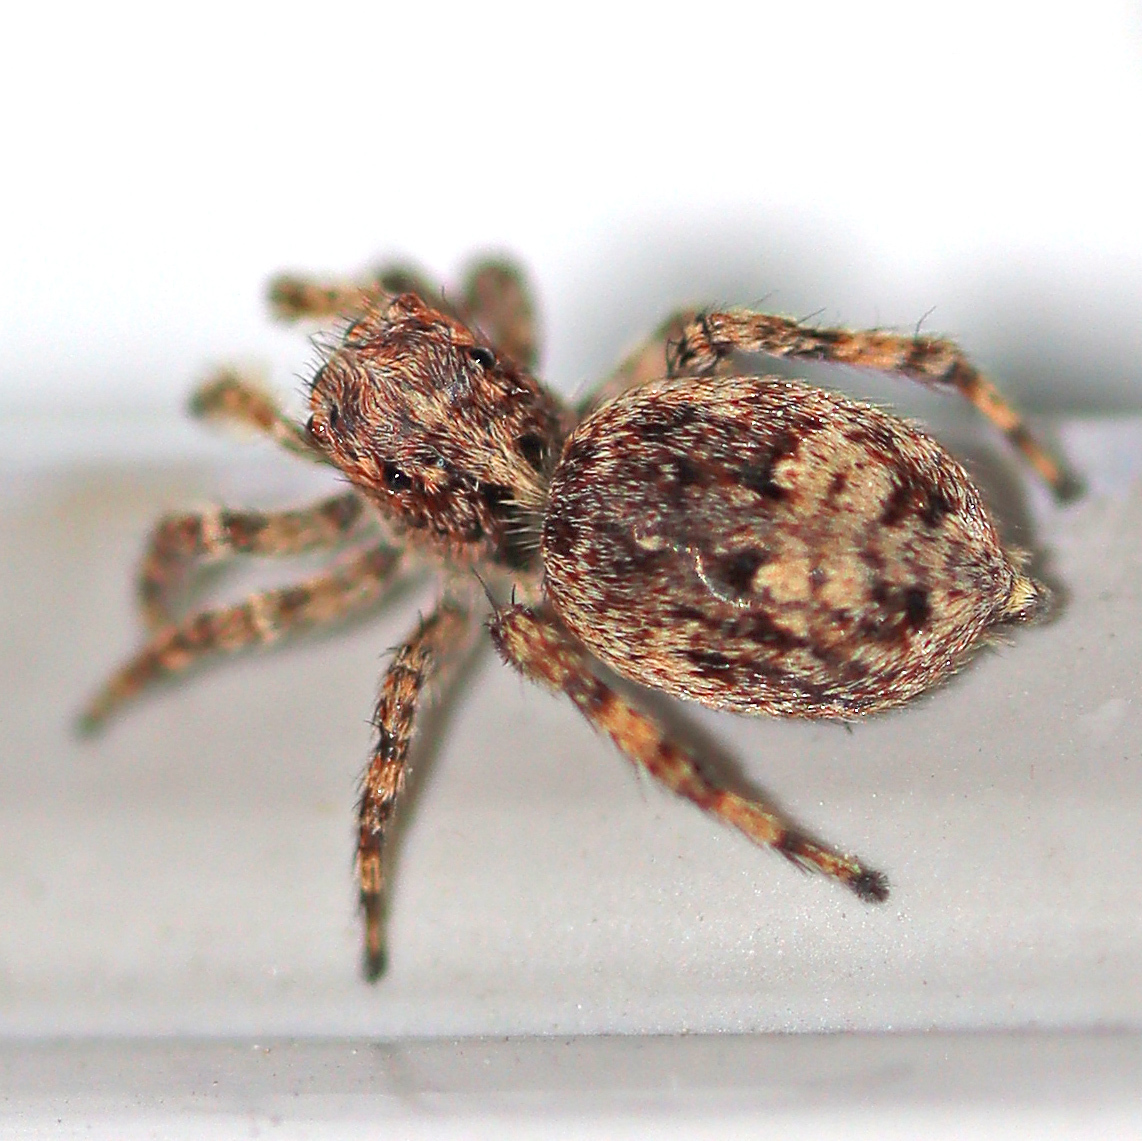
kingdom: Animalia
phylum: Arthropoda
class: Arachnida
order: Araneae
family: Salticidae
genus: Attulus
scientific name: Attulus fasciger
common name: Asiatic wall jumping spider
